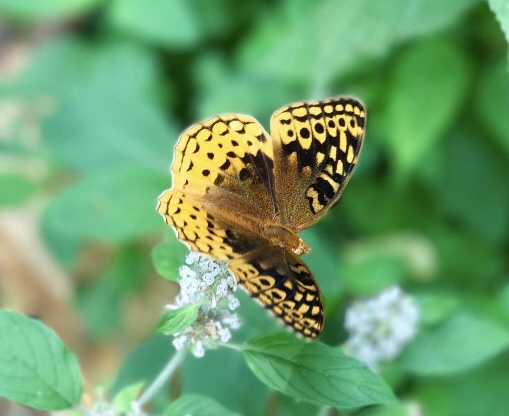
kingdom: Animalia
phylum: Arthropoda
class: Insecta
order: Lepidoptera
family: Nymphalidae
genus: Speyeria
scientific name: Speyeria cybele
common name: Great spangled fritillary
